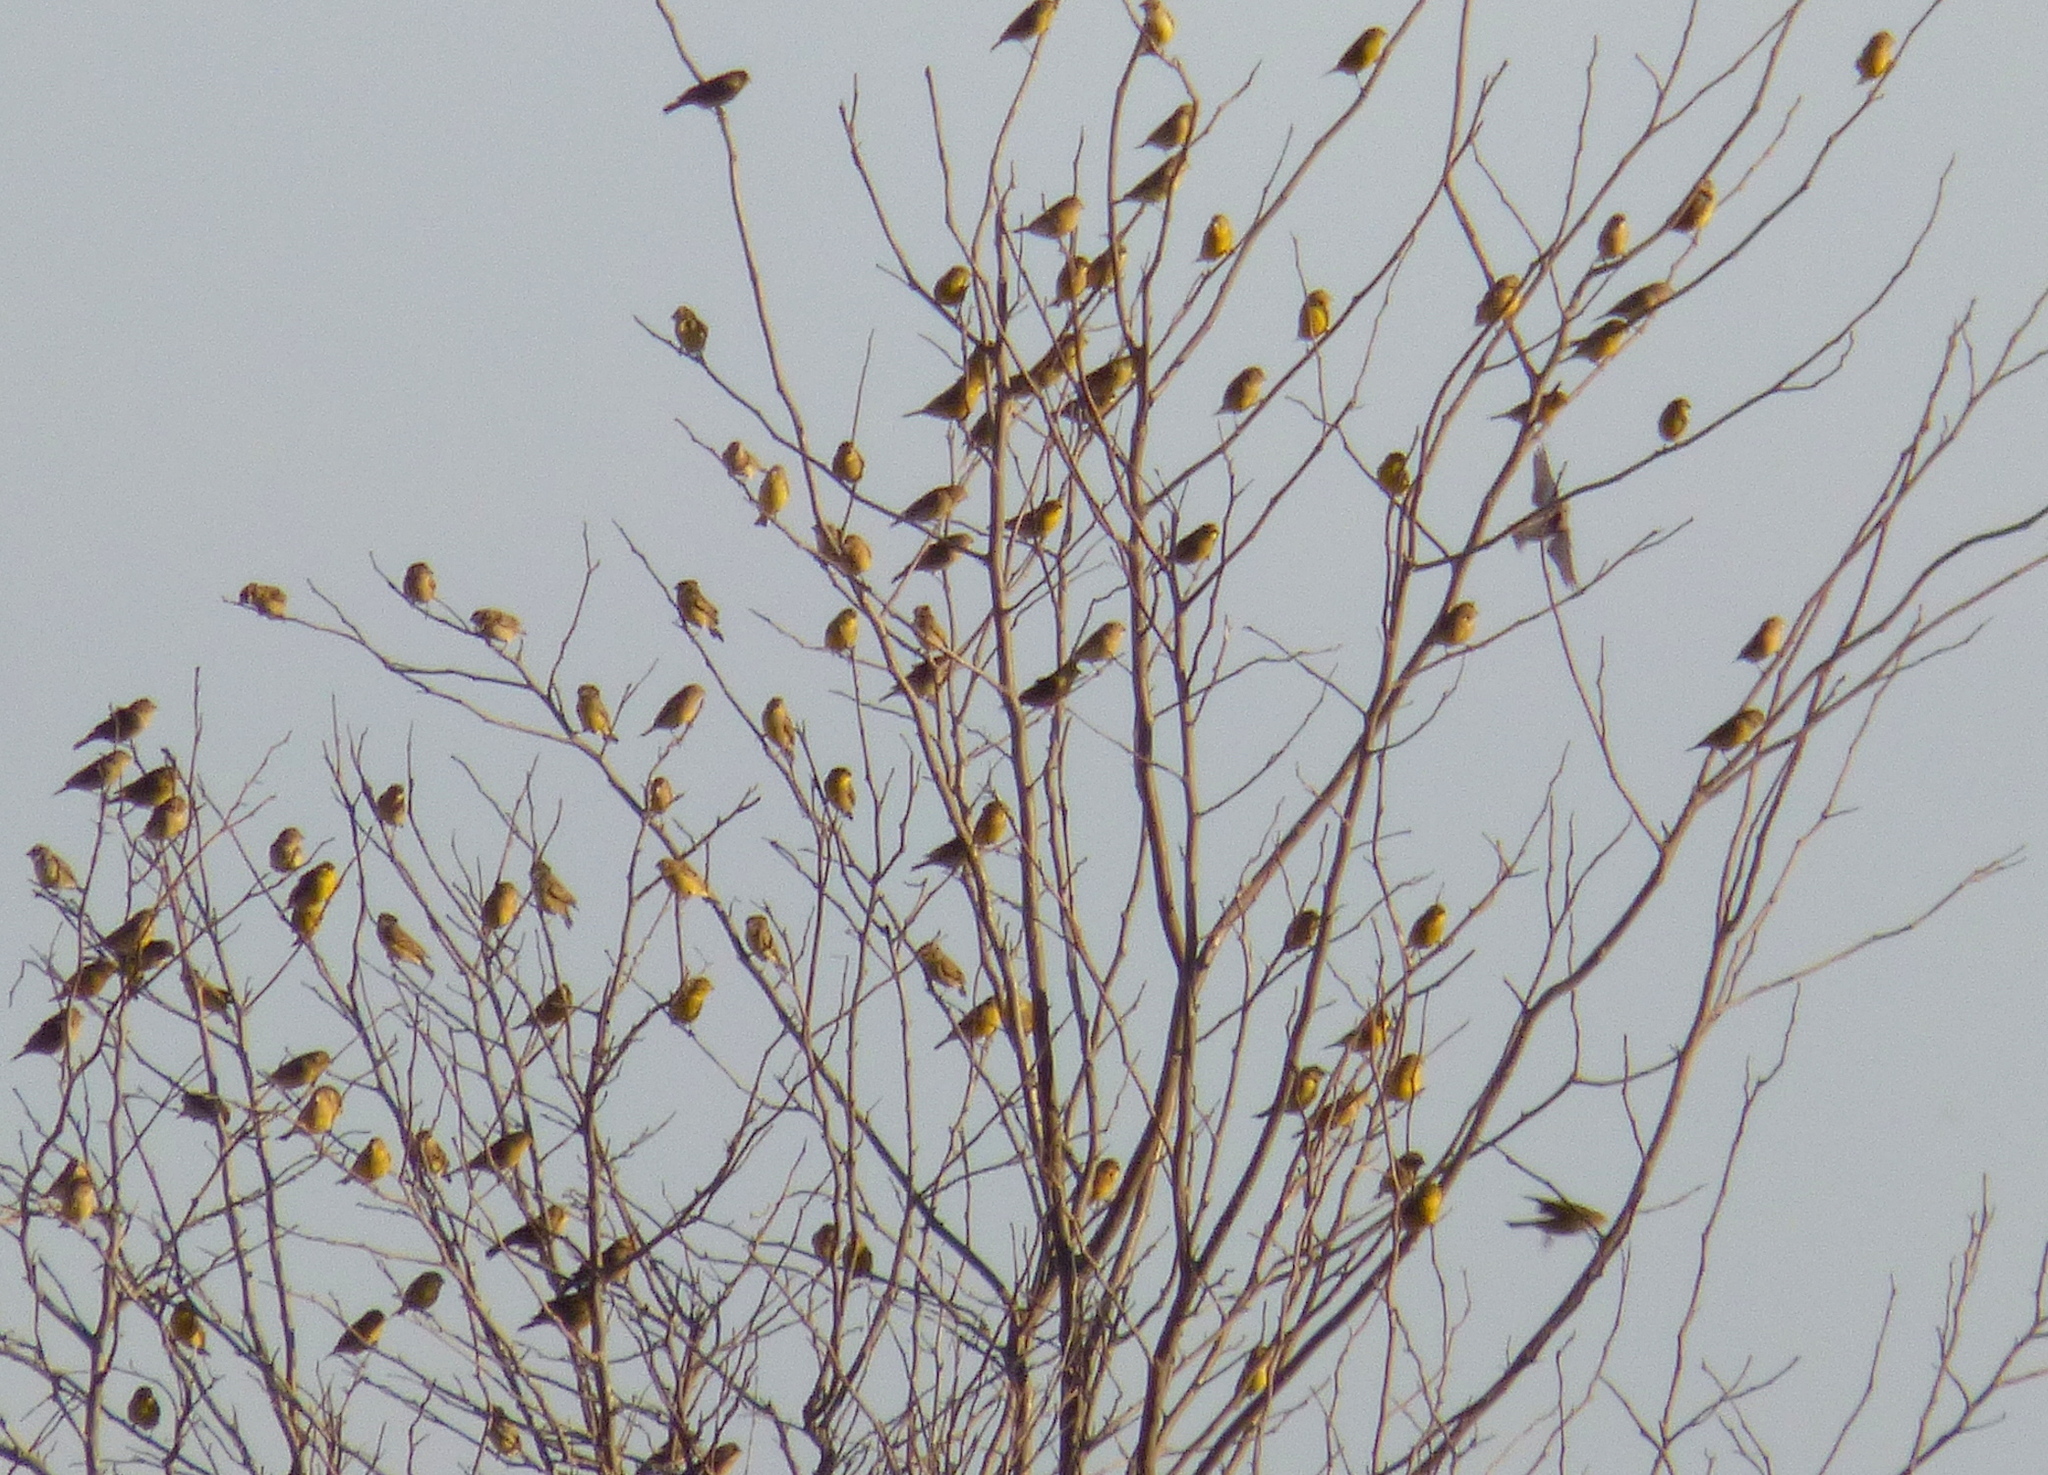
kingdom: Animalia
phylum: Chordata
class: Aves
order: Passeriformes
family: Thraupidae
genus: Sicalis
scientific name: Sicalis luteola
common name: Grassland yellow-finch
